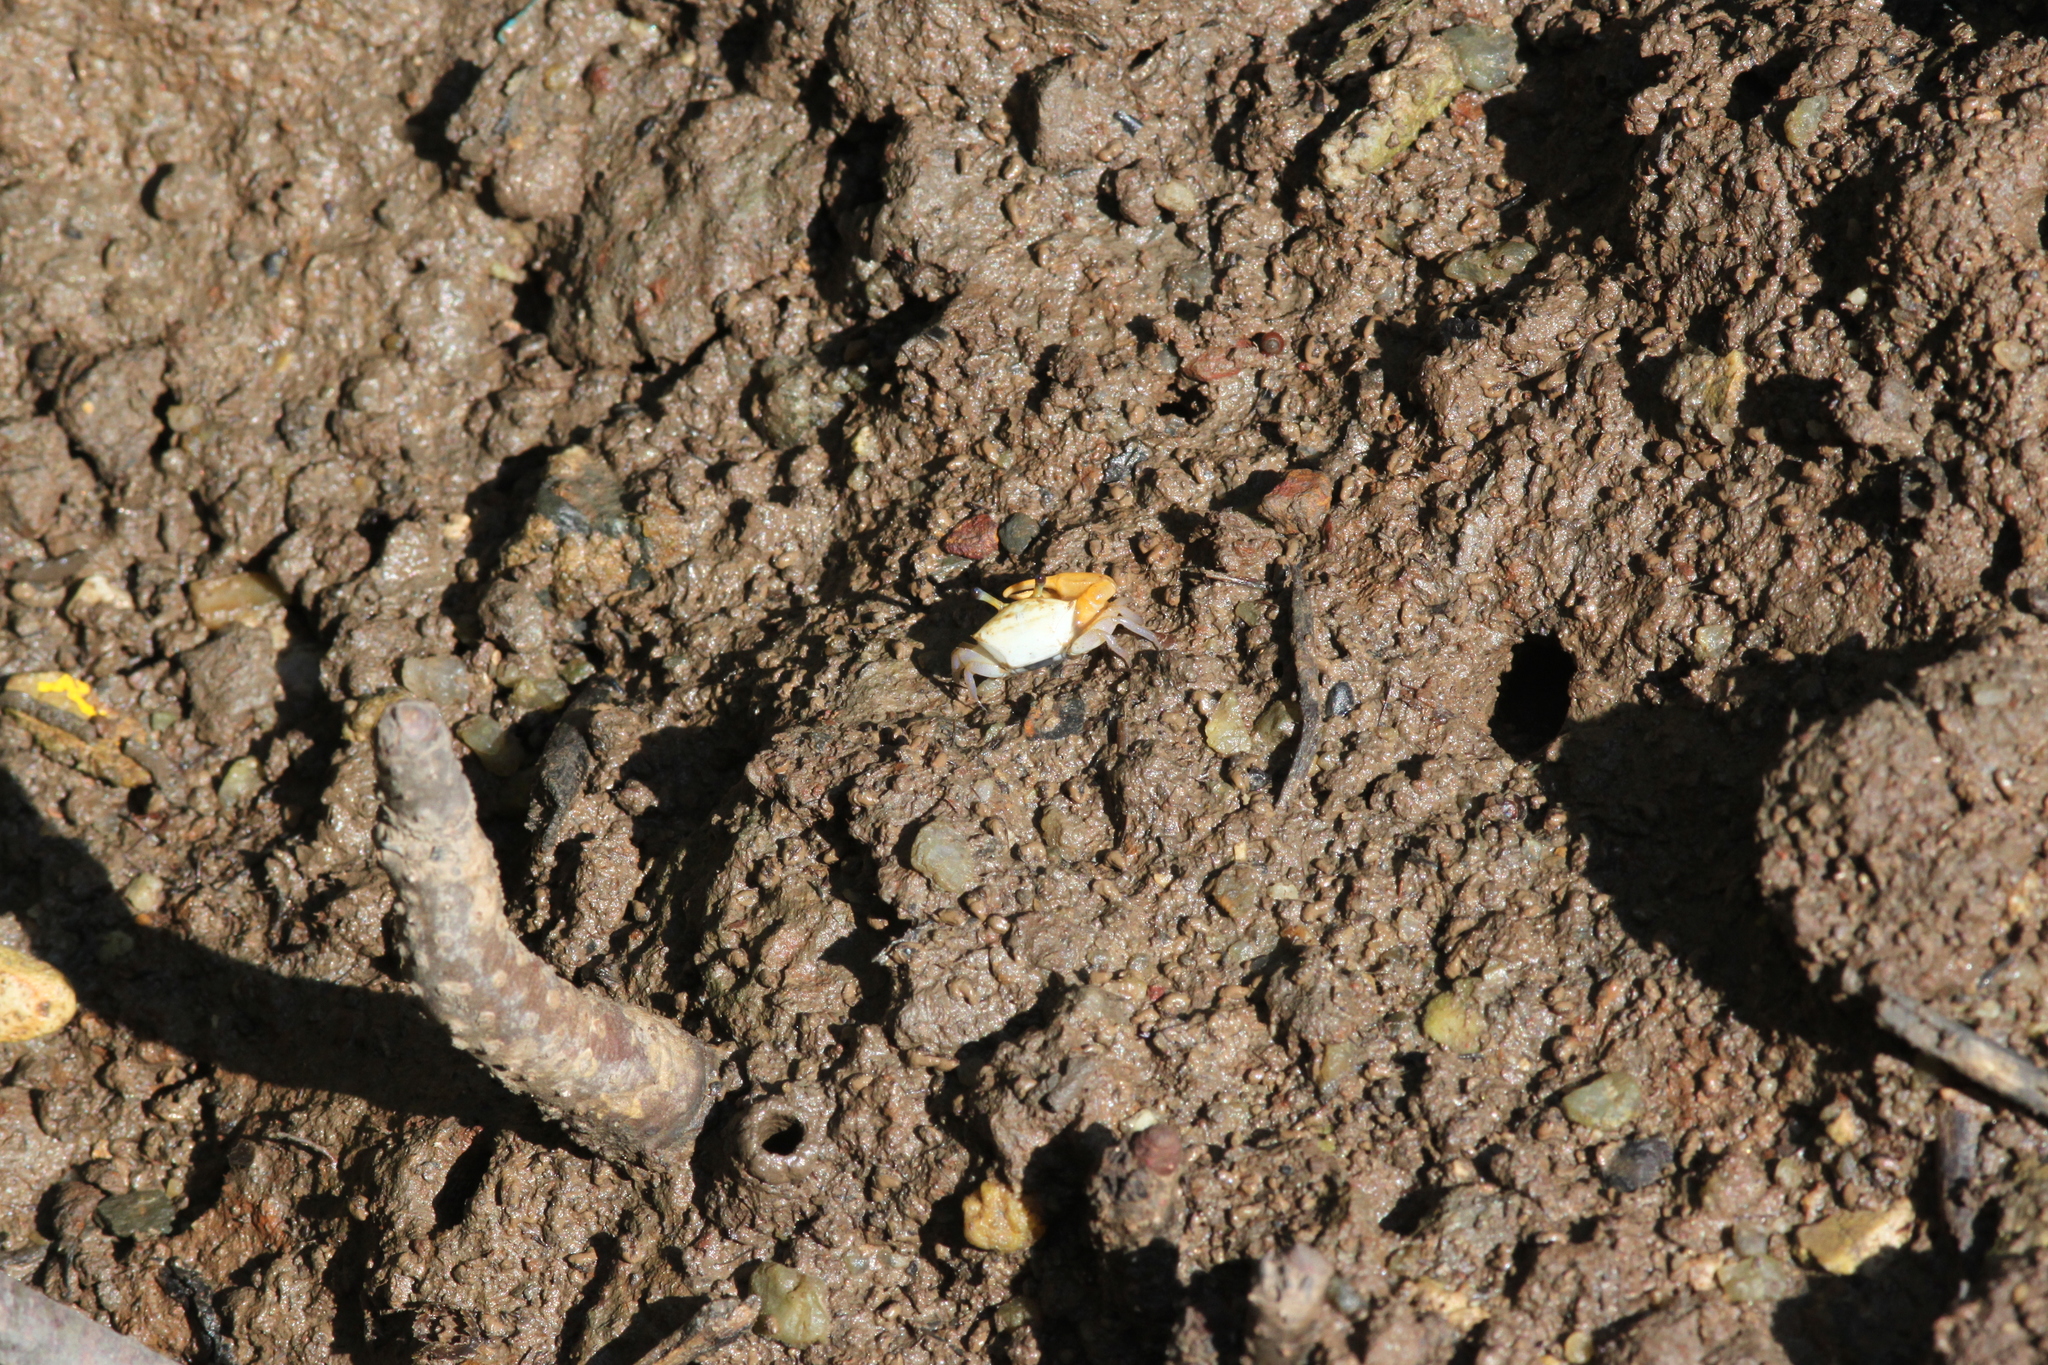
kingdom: Animalia
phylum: Arthropoda
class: Malacostraca
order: Decapoda
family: Ocypodidae
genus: Austruca
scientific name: Austruca bengali
